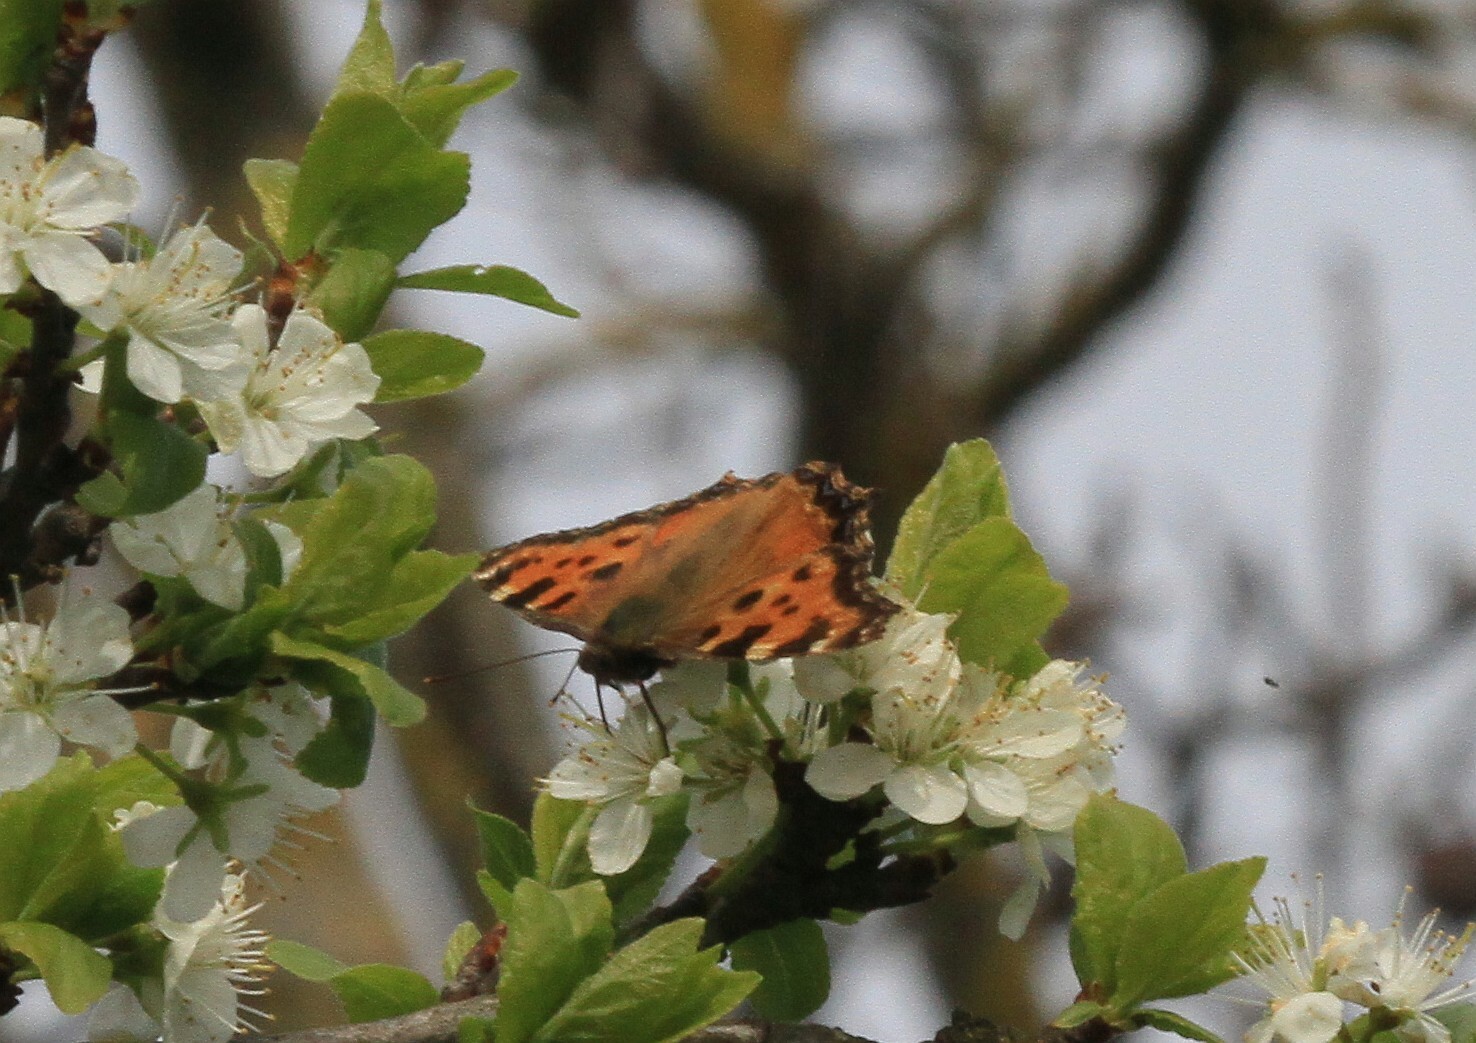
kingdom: Animalia
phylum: Arthropoda
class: Insecta
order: Lepidoptera
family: Nymphalidae
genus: Nymphalis
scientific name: Nymphalis polychloros
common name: Large tortoiseshell
